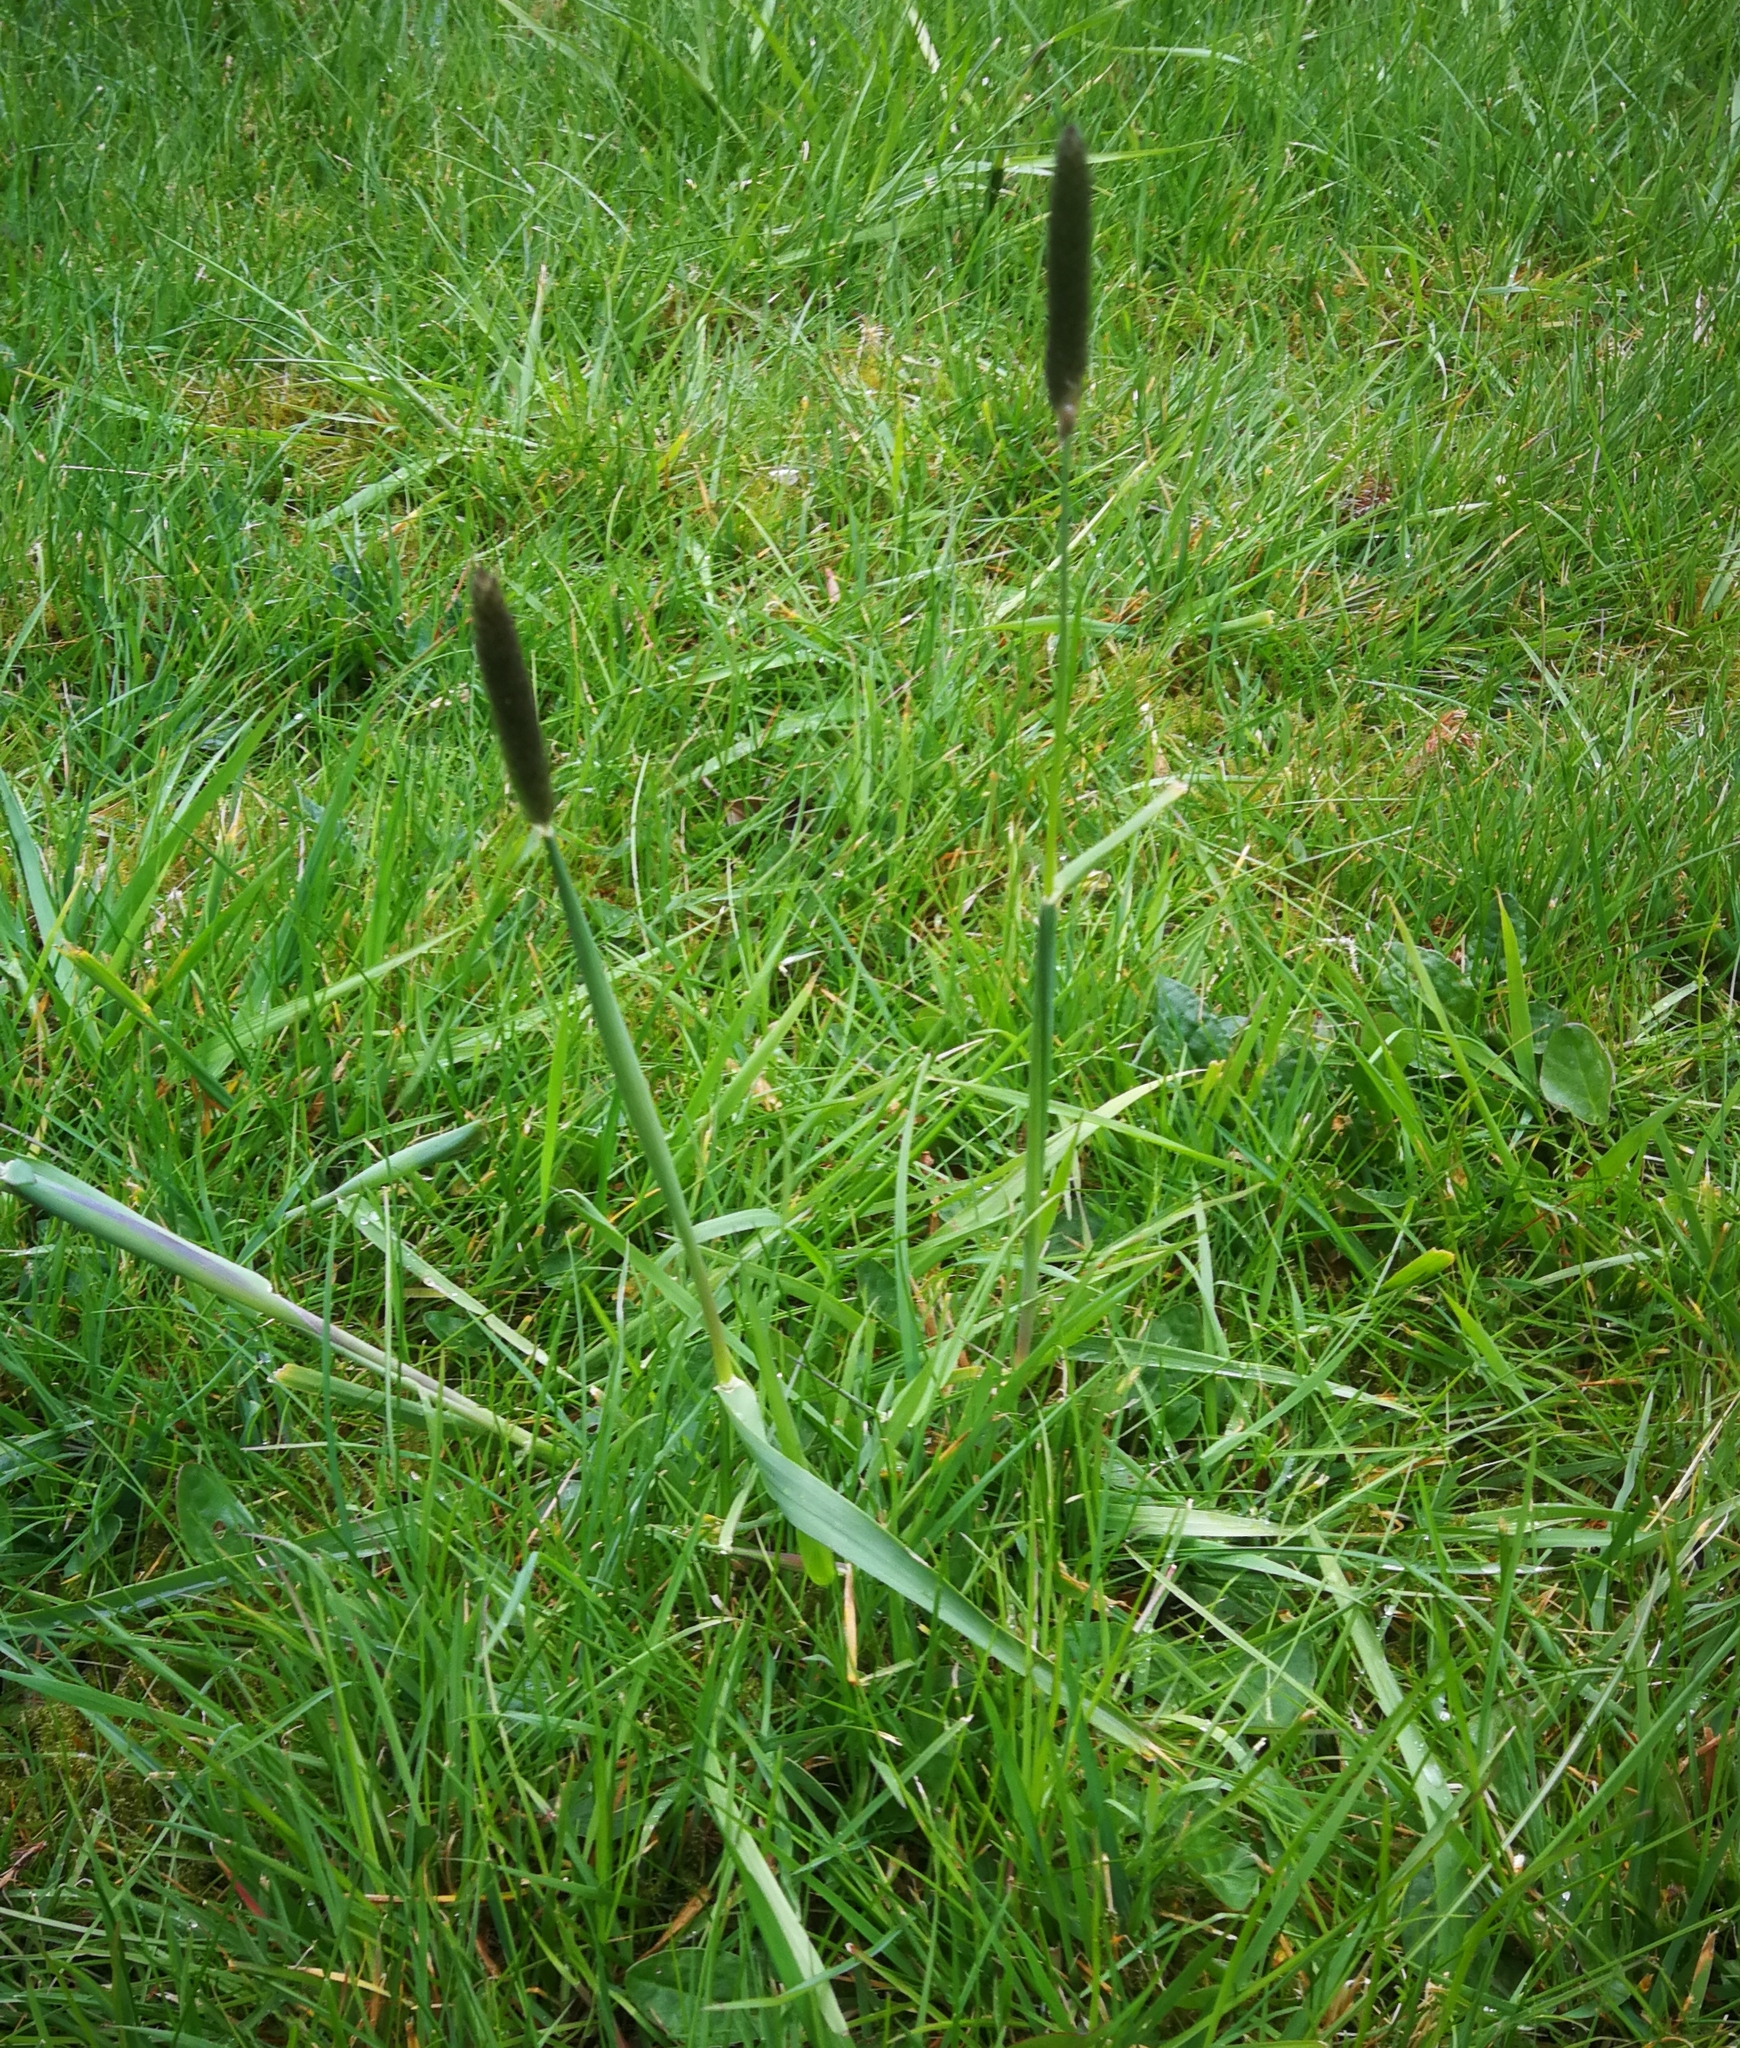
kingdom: Plantae
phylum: Tracheophyta
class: Liliopsida
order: Poales
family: Poaceae
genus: Alopecurus
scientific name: Alopecurus pratensis
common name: Meadow foxtail
